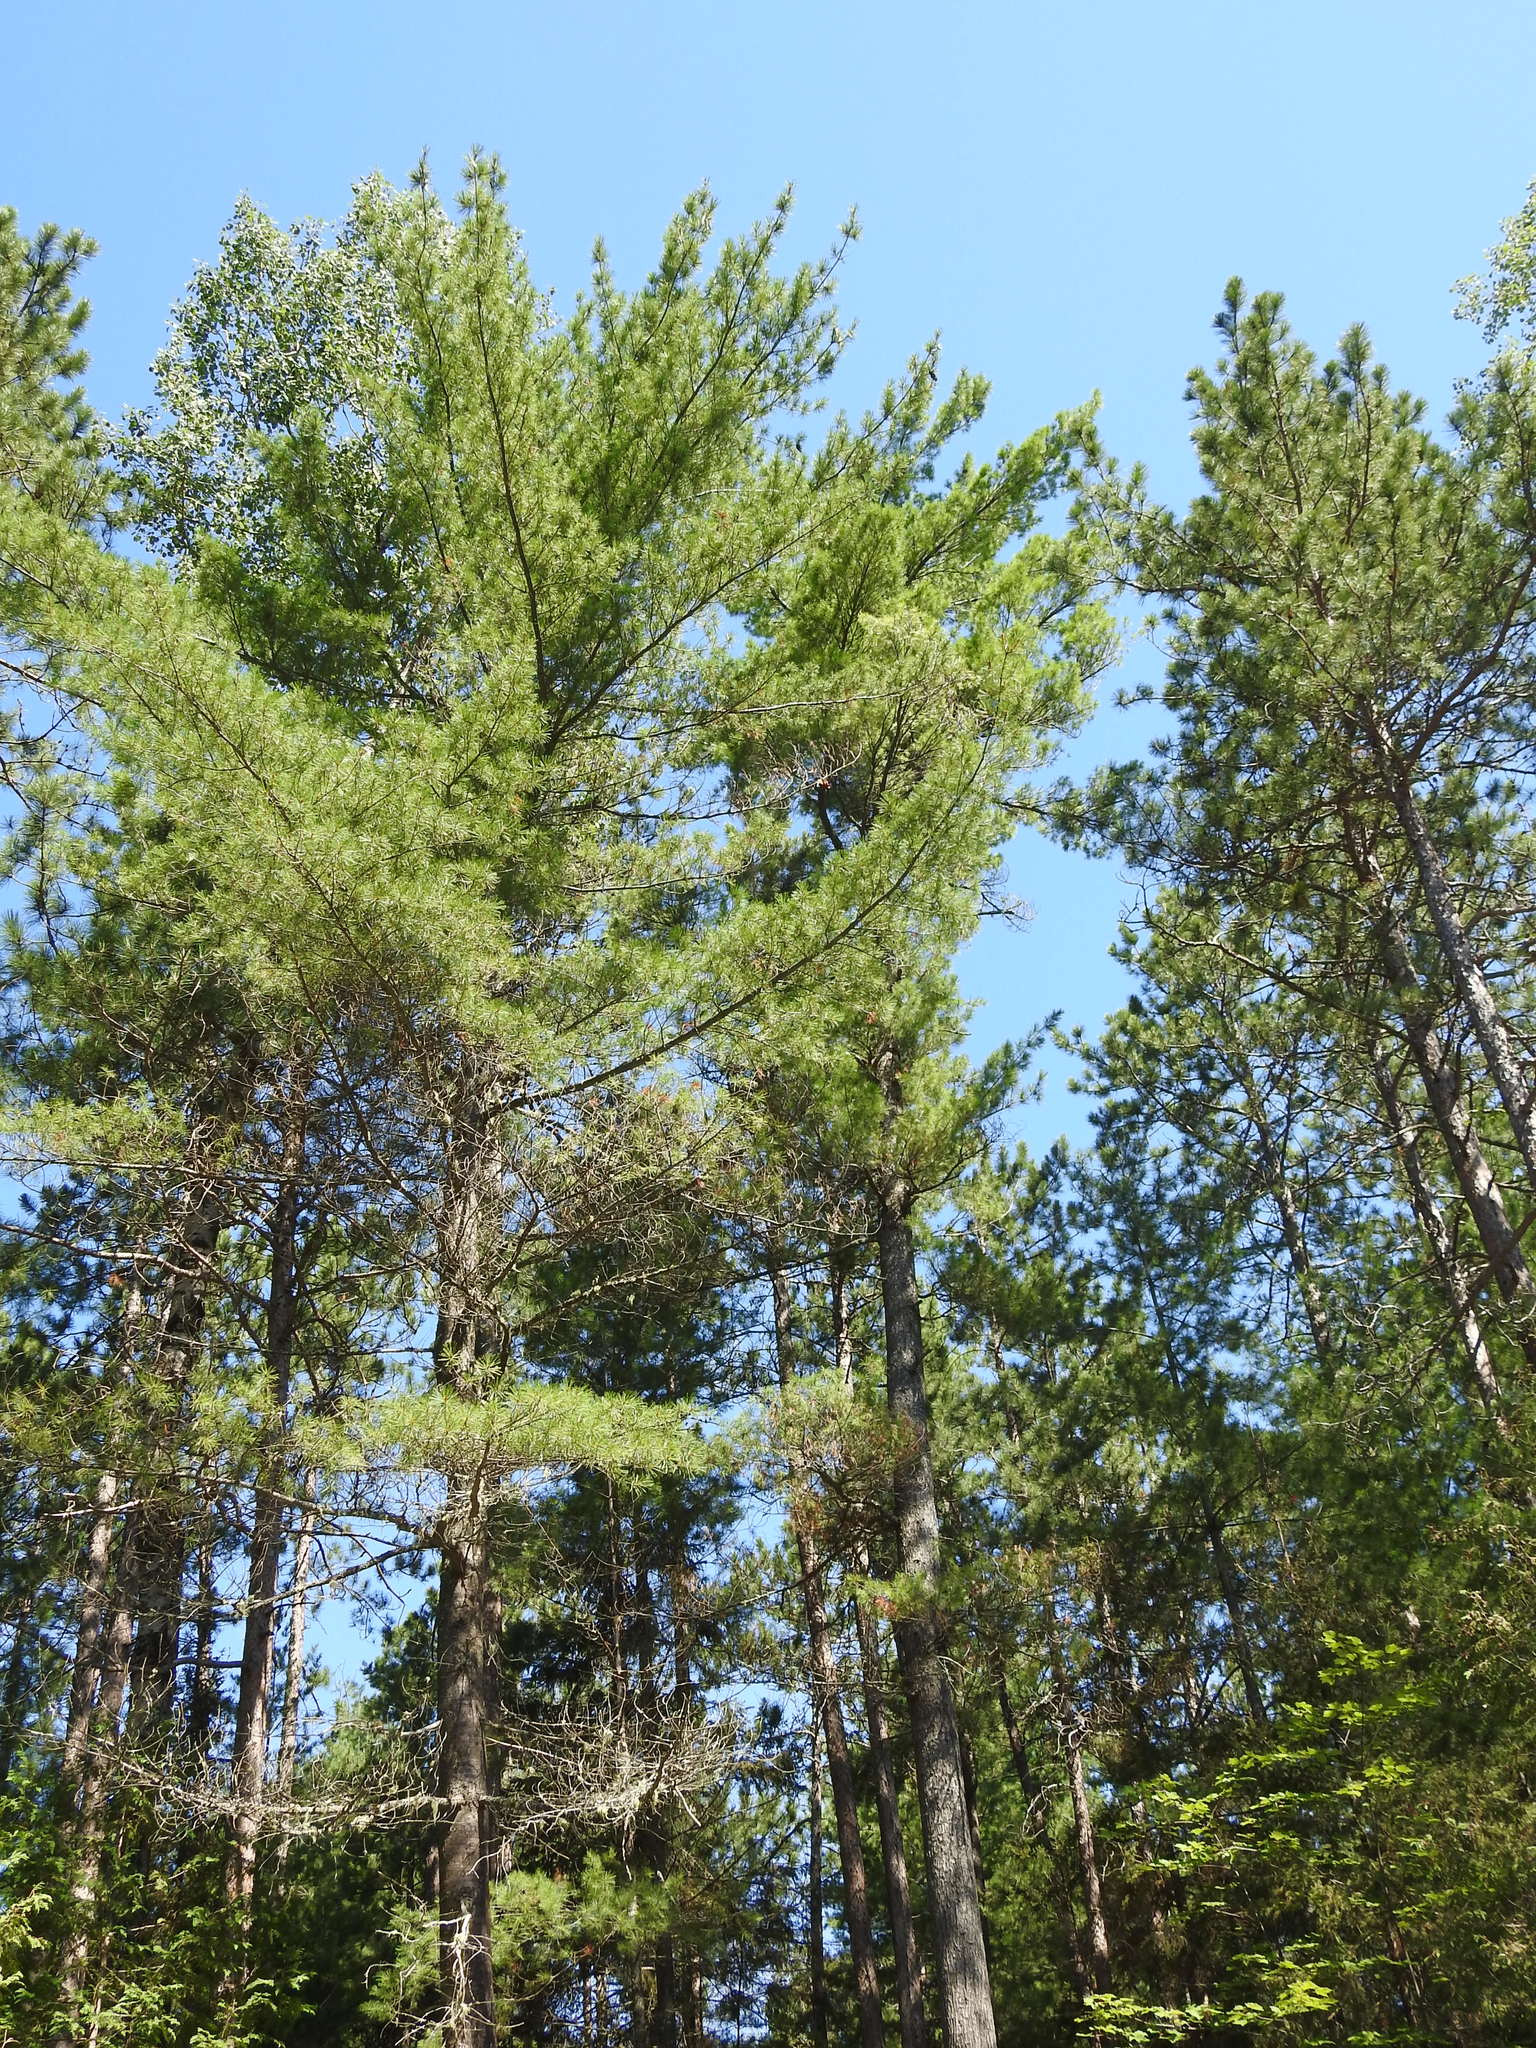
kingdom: Plantae
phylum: Tracheophyta
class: Pinopsida
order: Pinales
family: Pinaceae
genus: Pinus
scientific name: Pinus strobus
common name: Weymouth pine
